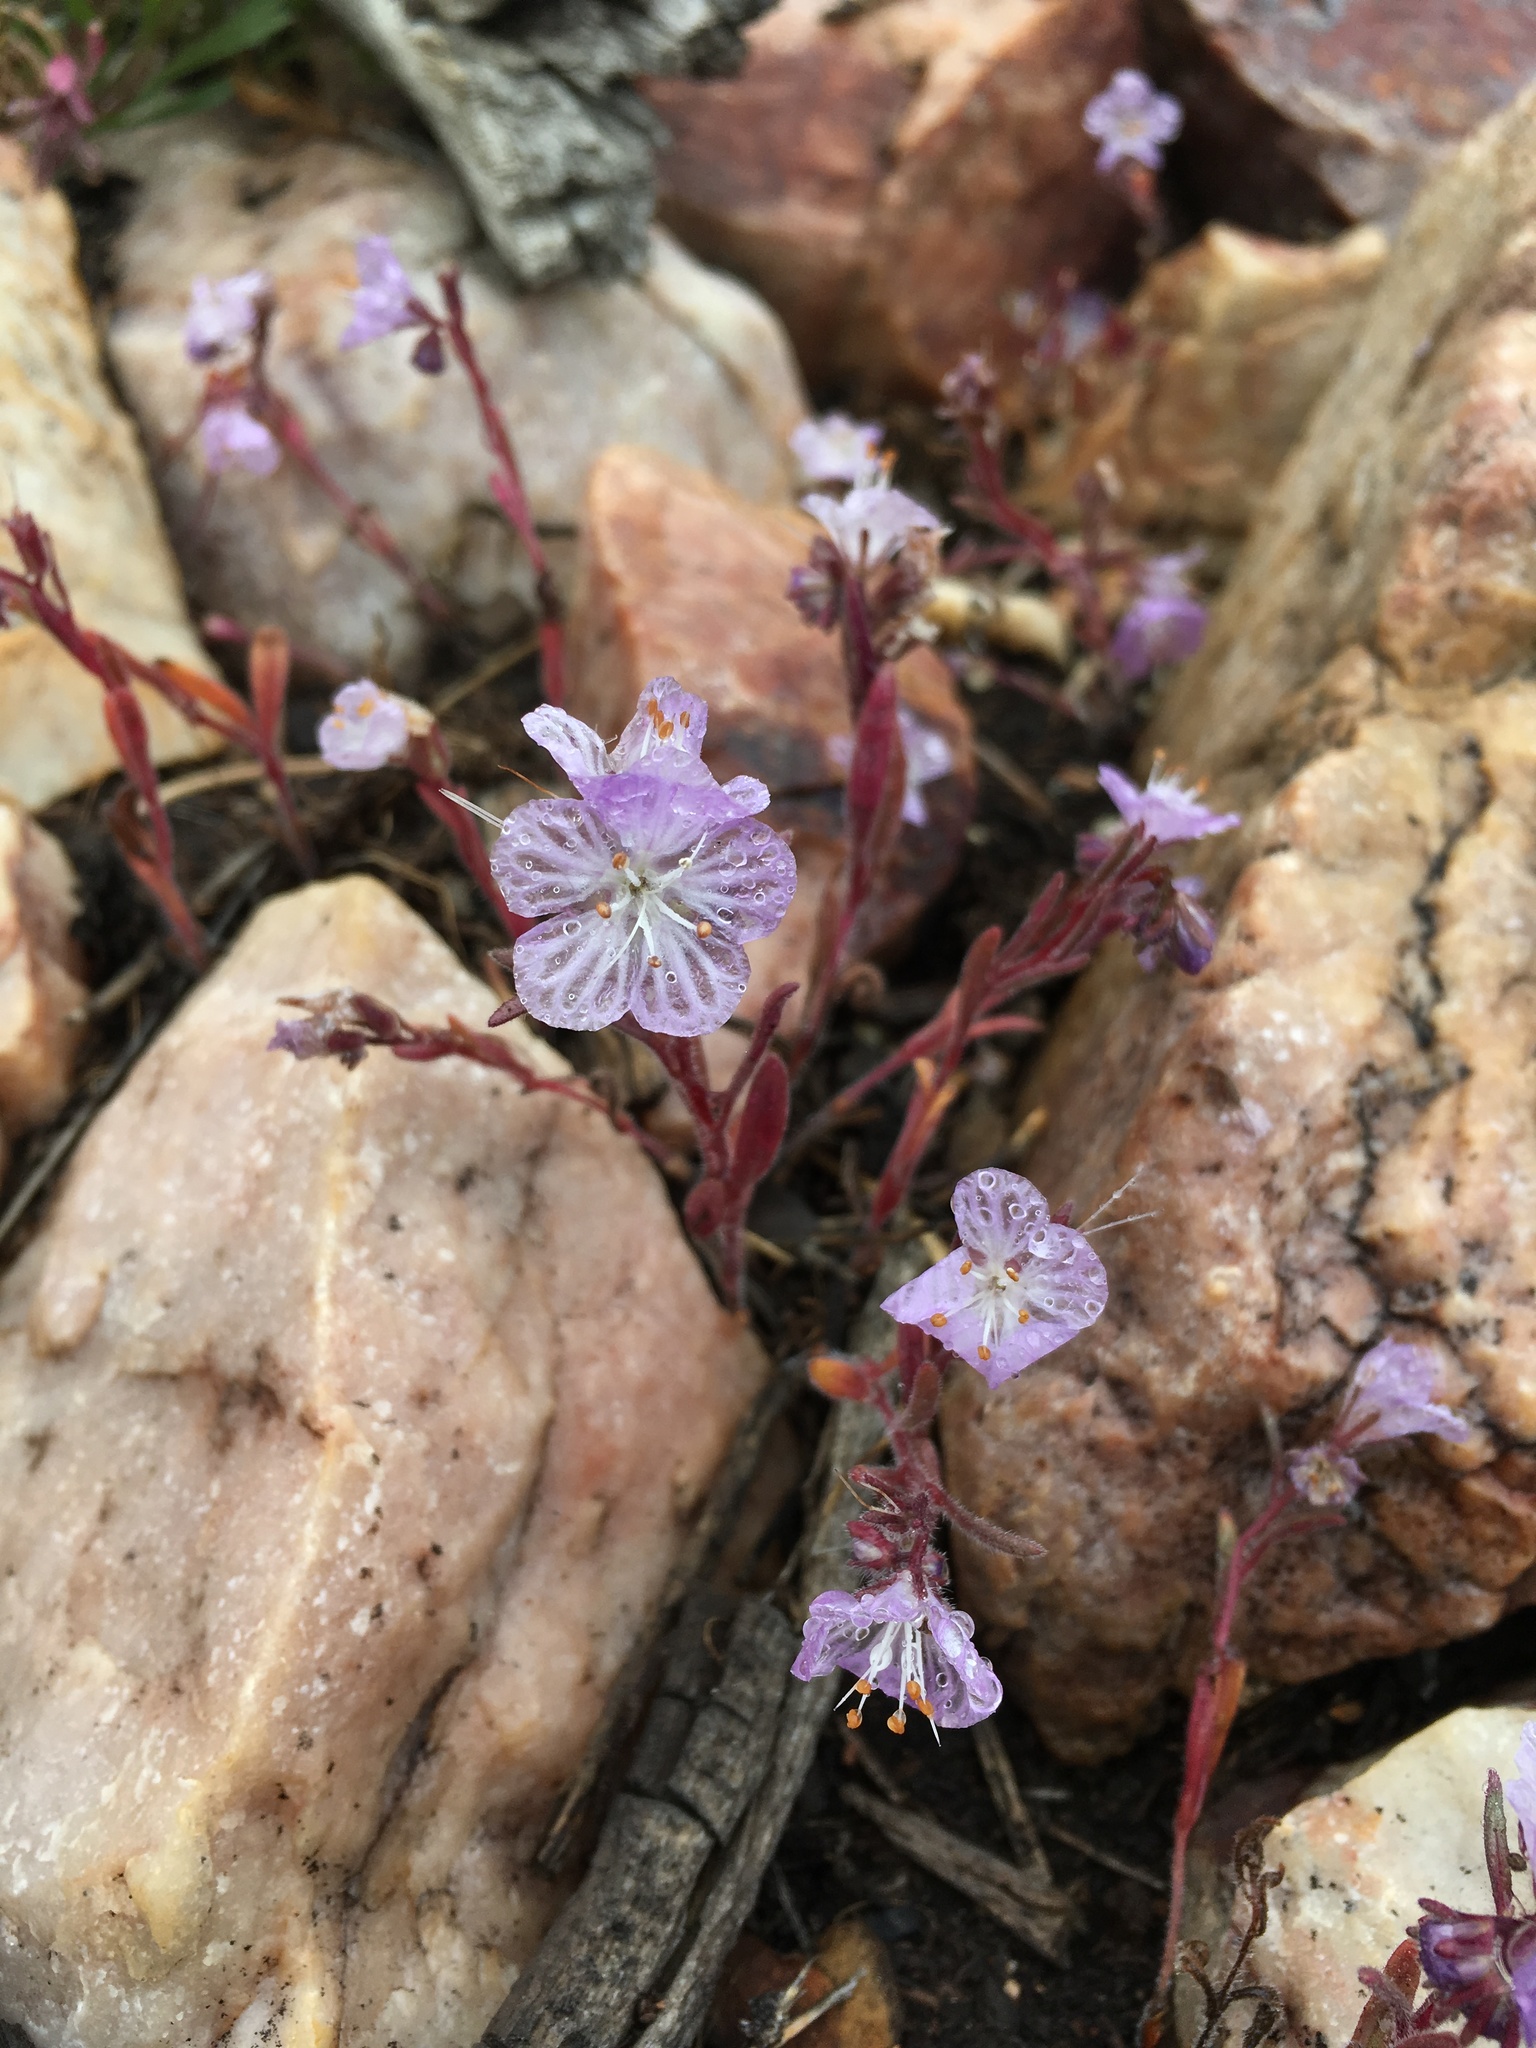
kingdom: Plantae
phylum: Tracheophyta
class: Magnoliopsida
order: Boraginales
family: Hydrophyllaceae
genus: Phacelia
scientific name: Phacelia exilis
